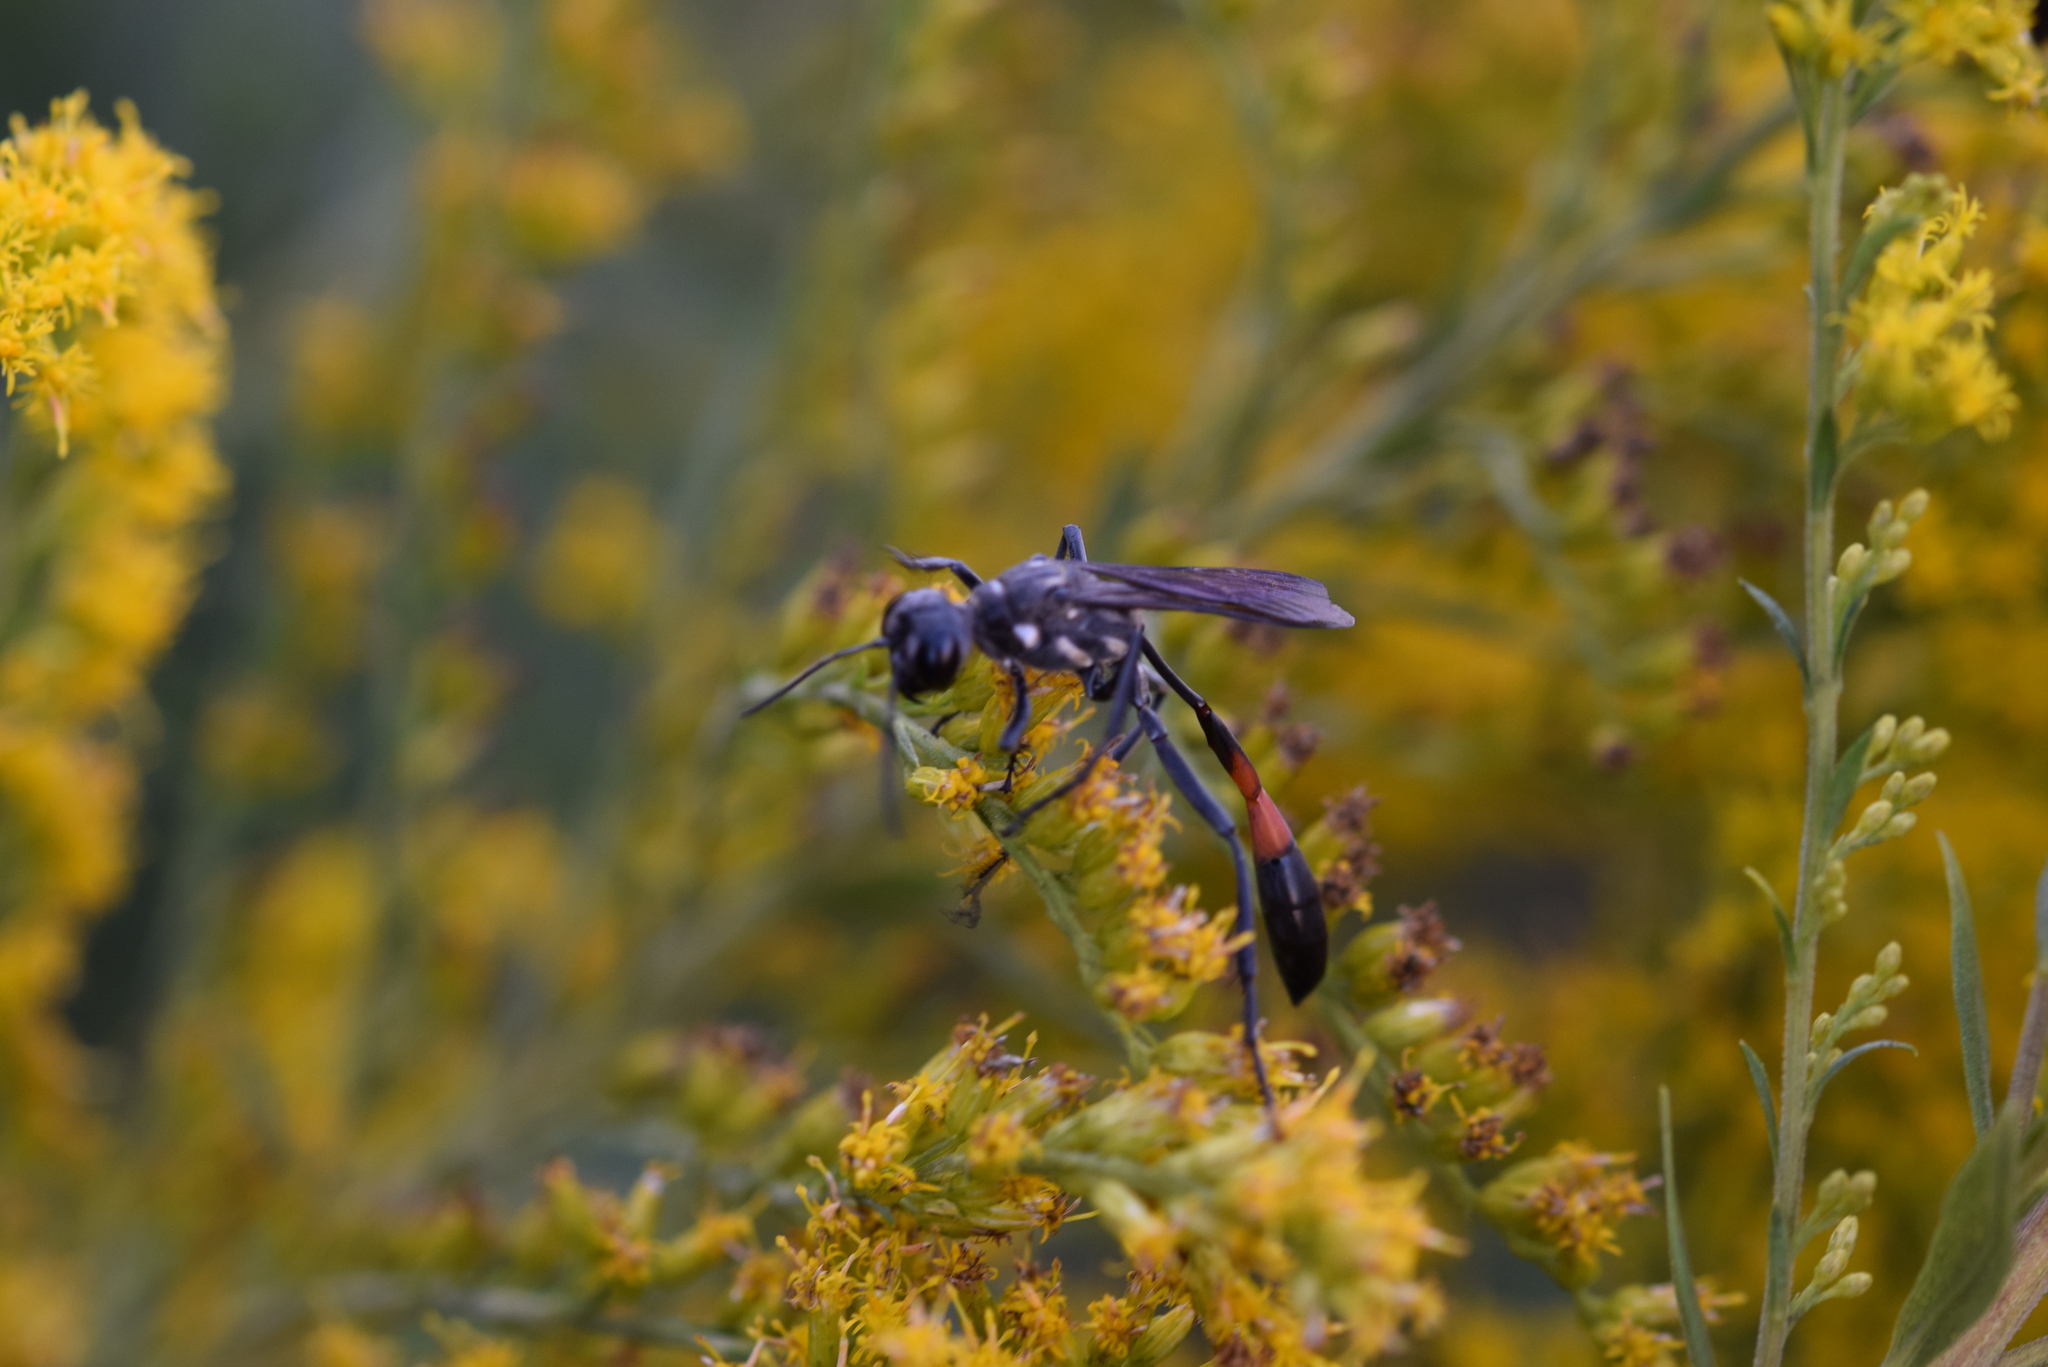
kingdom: Animalia
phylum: Arthropoda
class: Insecta
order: Hymenoptera
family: Sphecidae
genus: Ammophila
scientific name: Ammophila procera
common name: Common thread-waisted wasp
